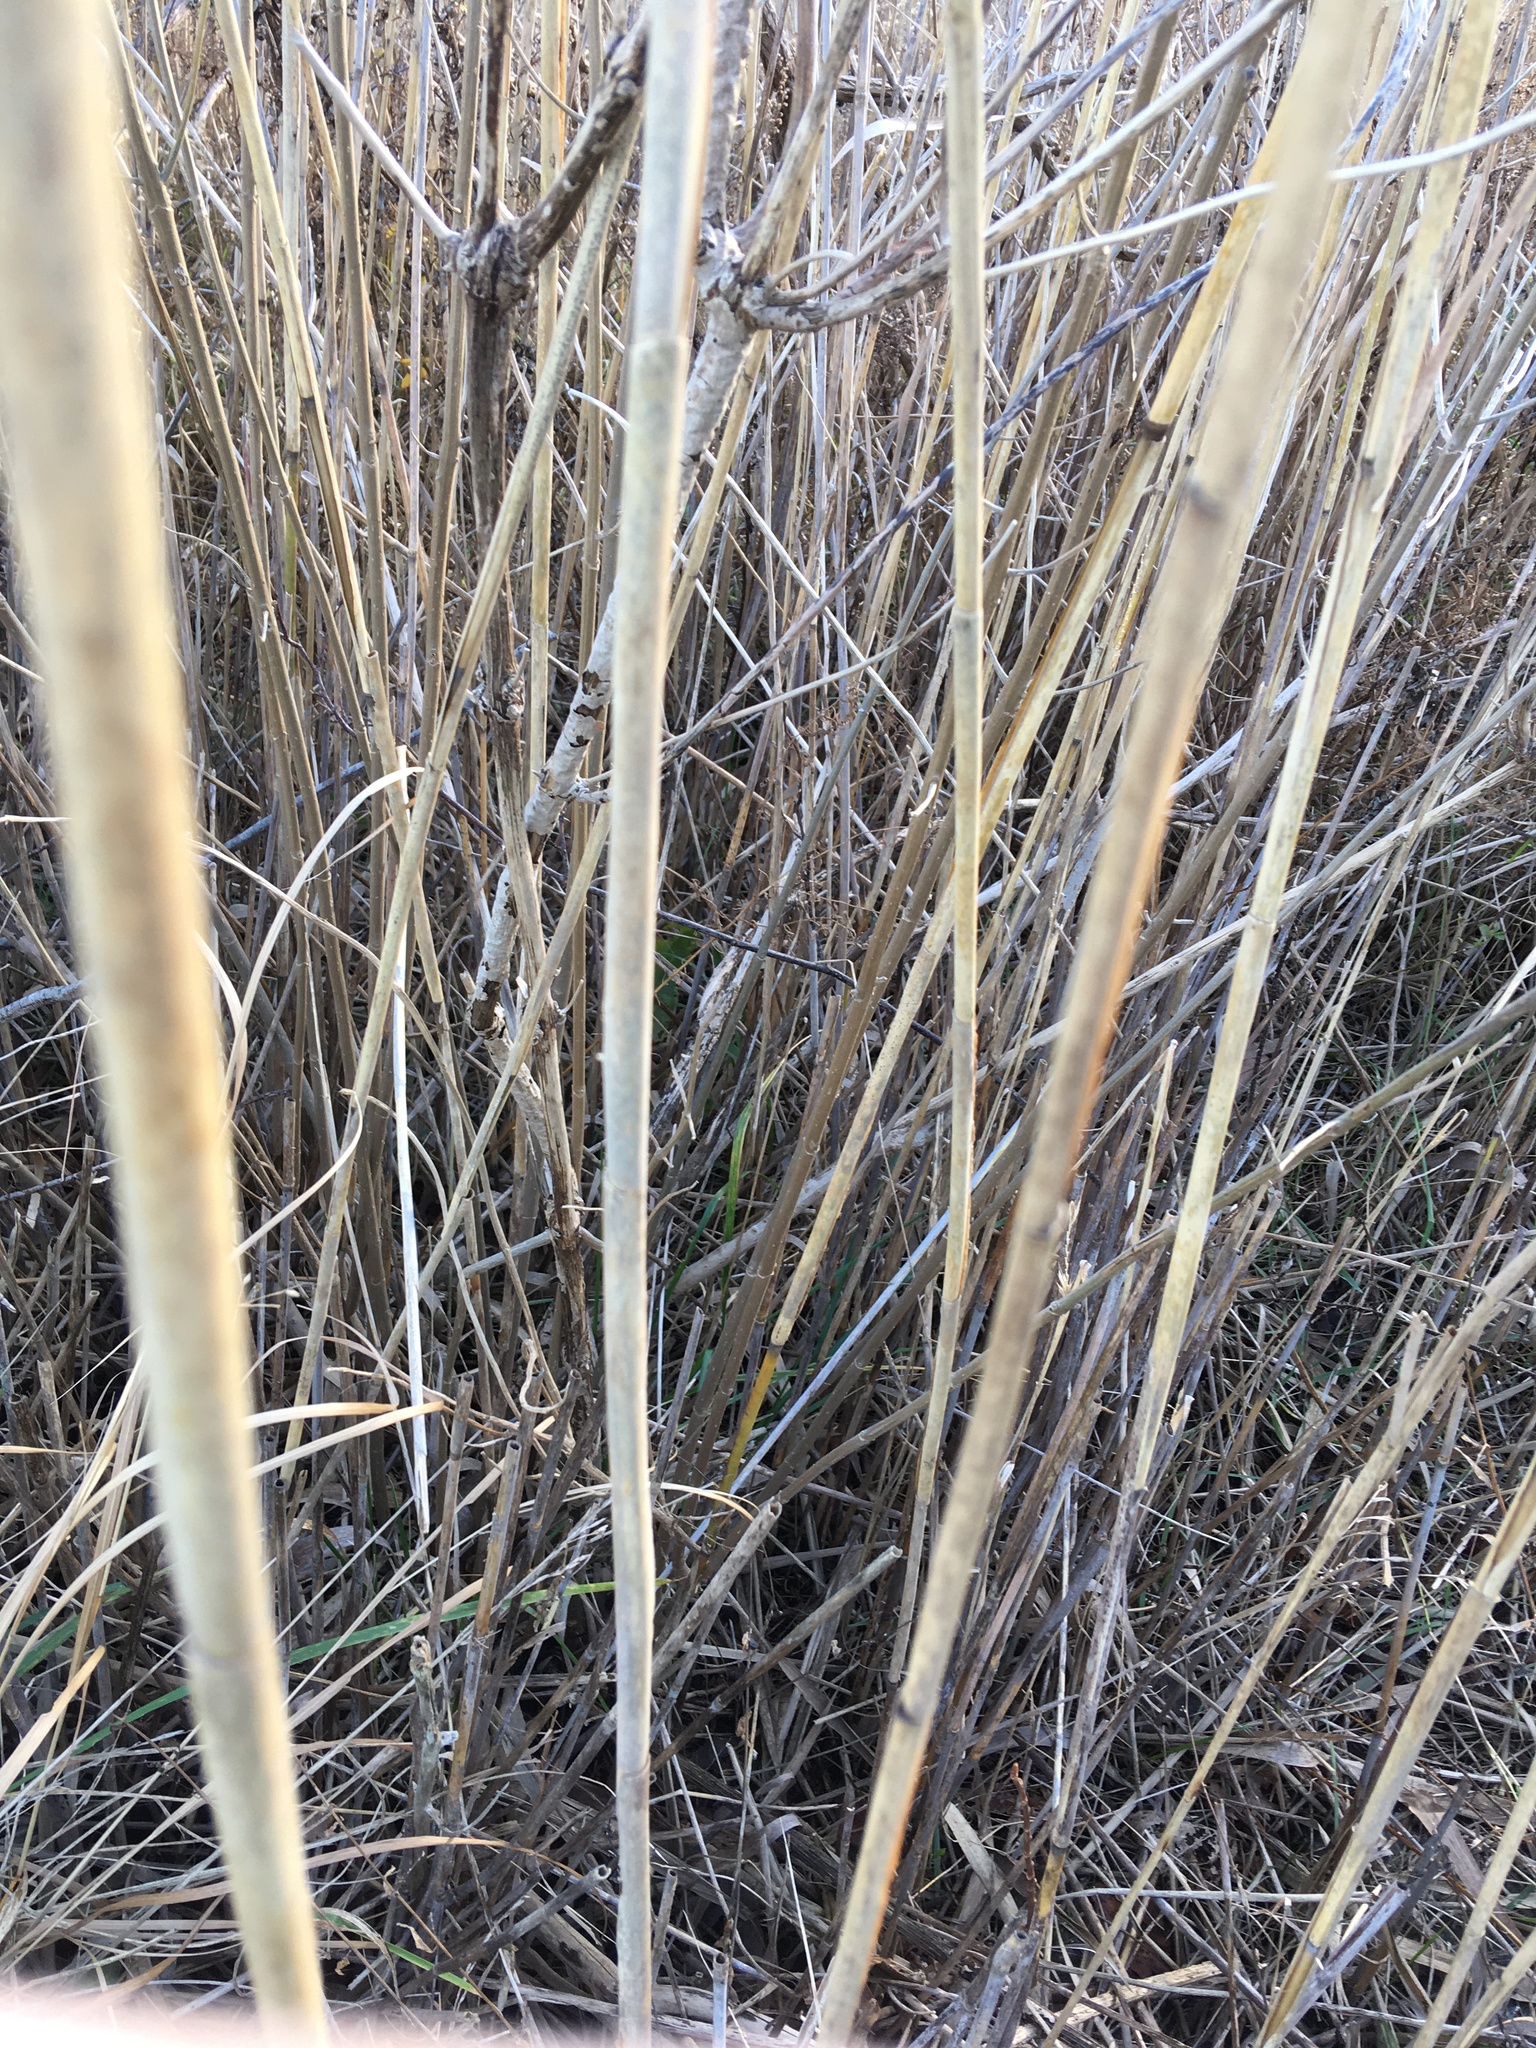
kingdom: Plantae
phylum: Tracheophyta
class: Liliopsida
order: Poales
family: Poaceae
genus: Phragmites
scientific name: Phragmites australis
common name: Common reed
